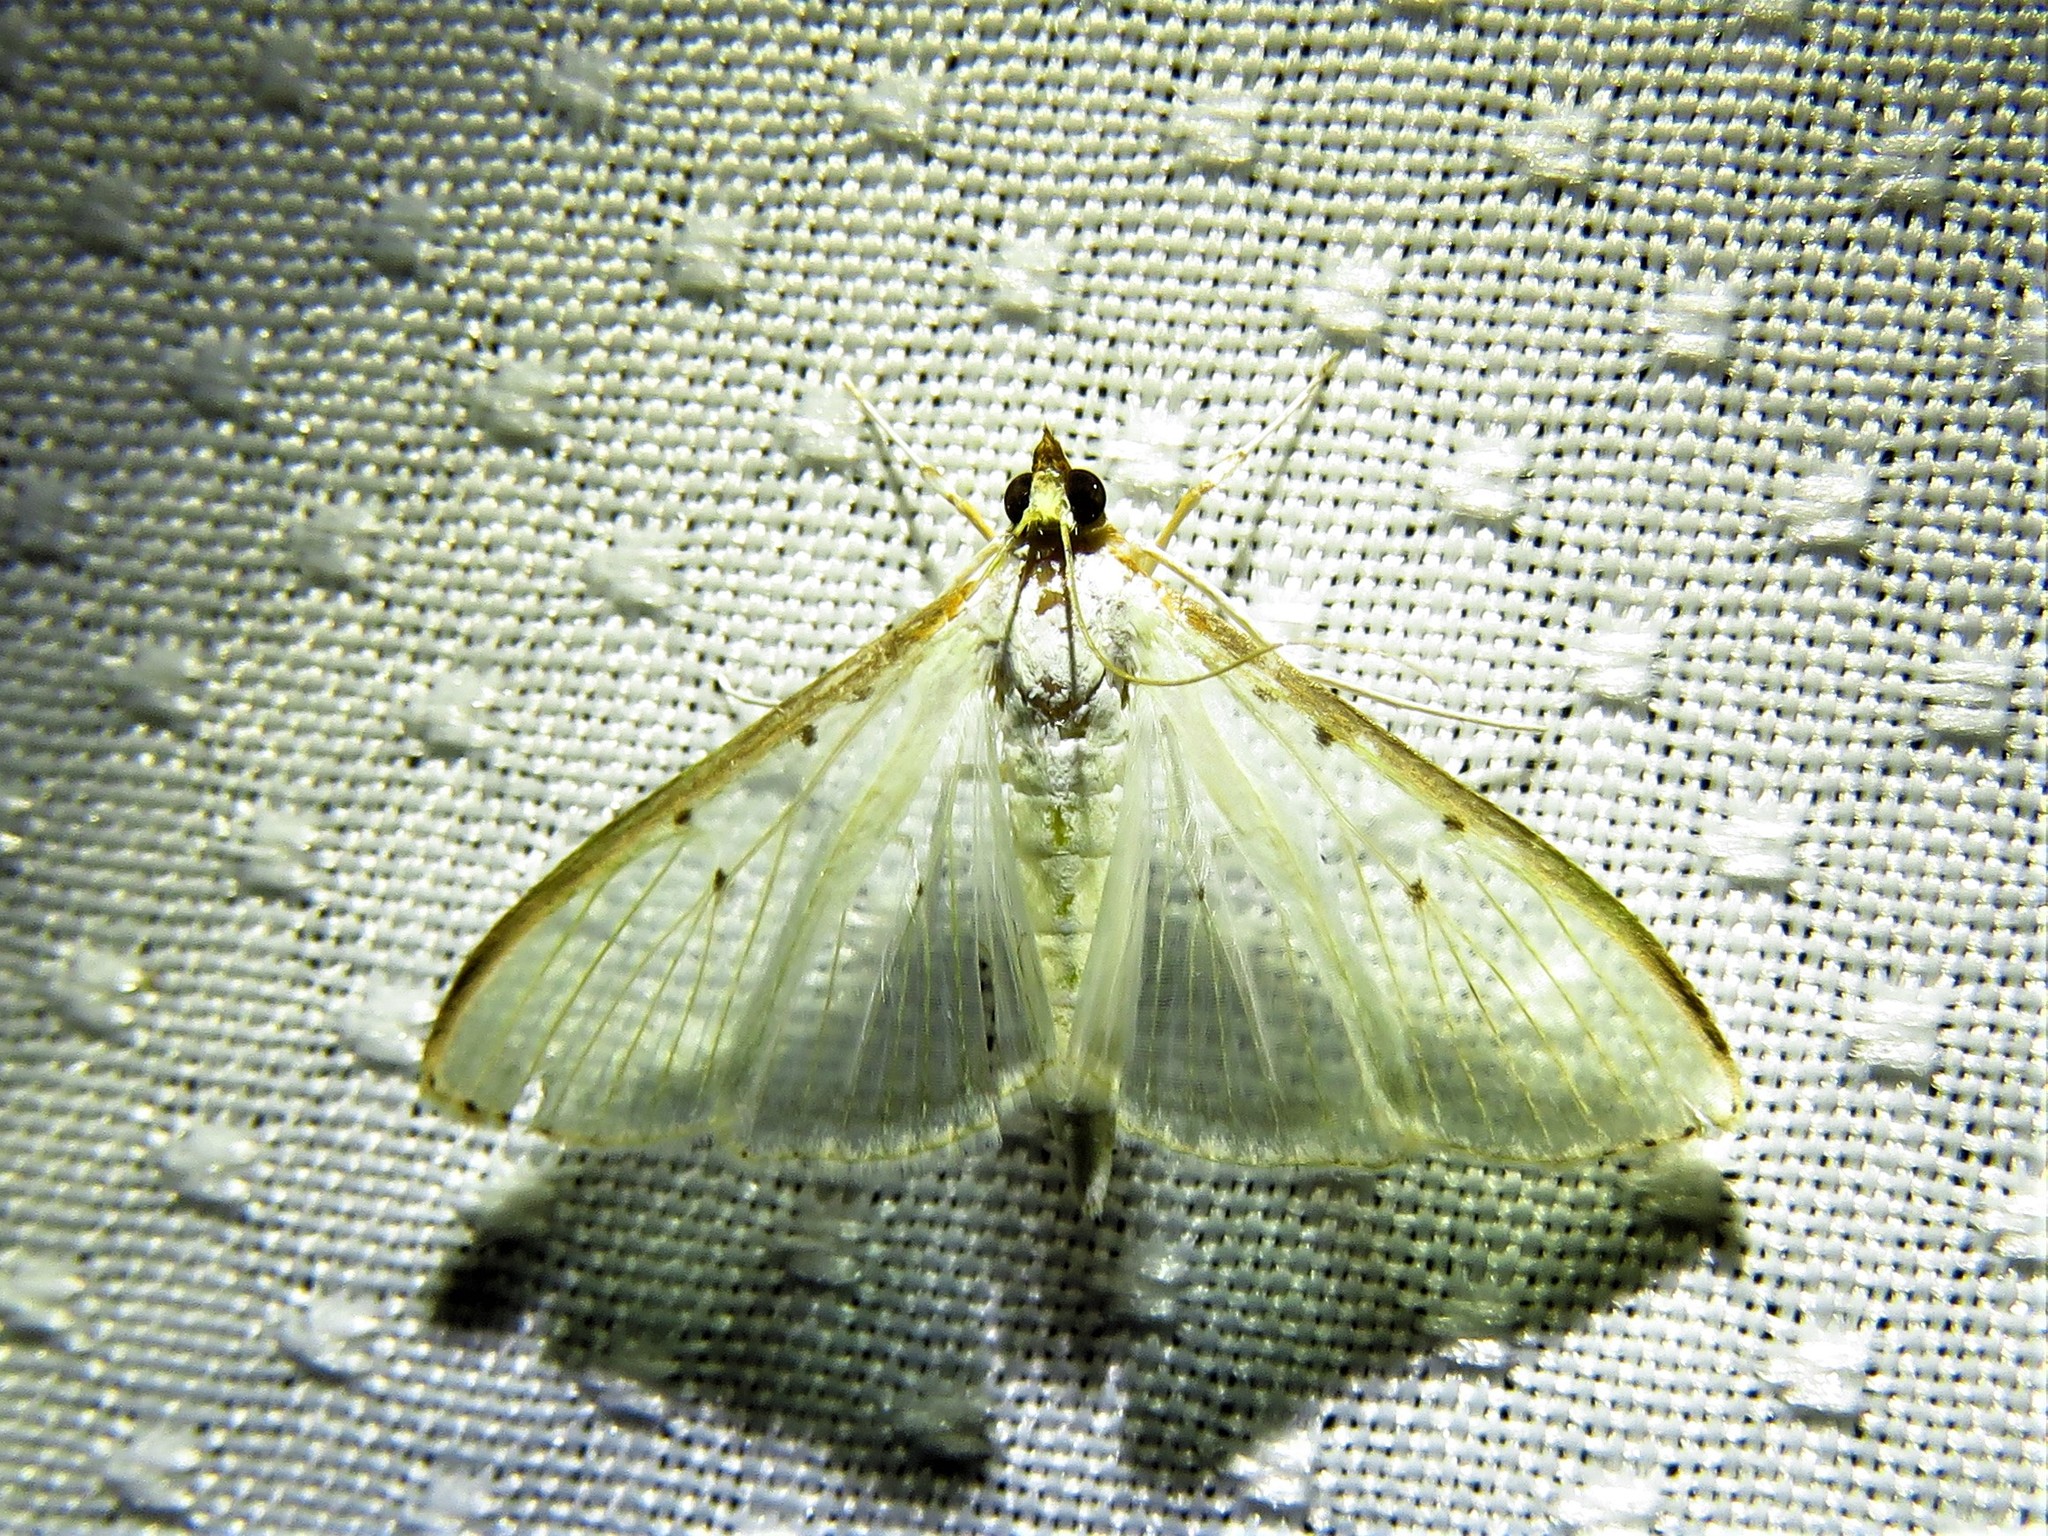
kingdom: Animalia
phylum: Arthropoda
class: Insecta
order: Lepidoptera
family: Crambidae
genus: Palpita
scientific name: Palpita quadristigmalis
